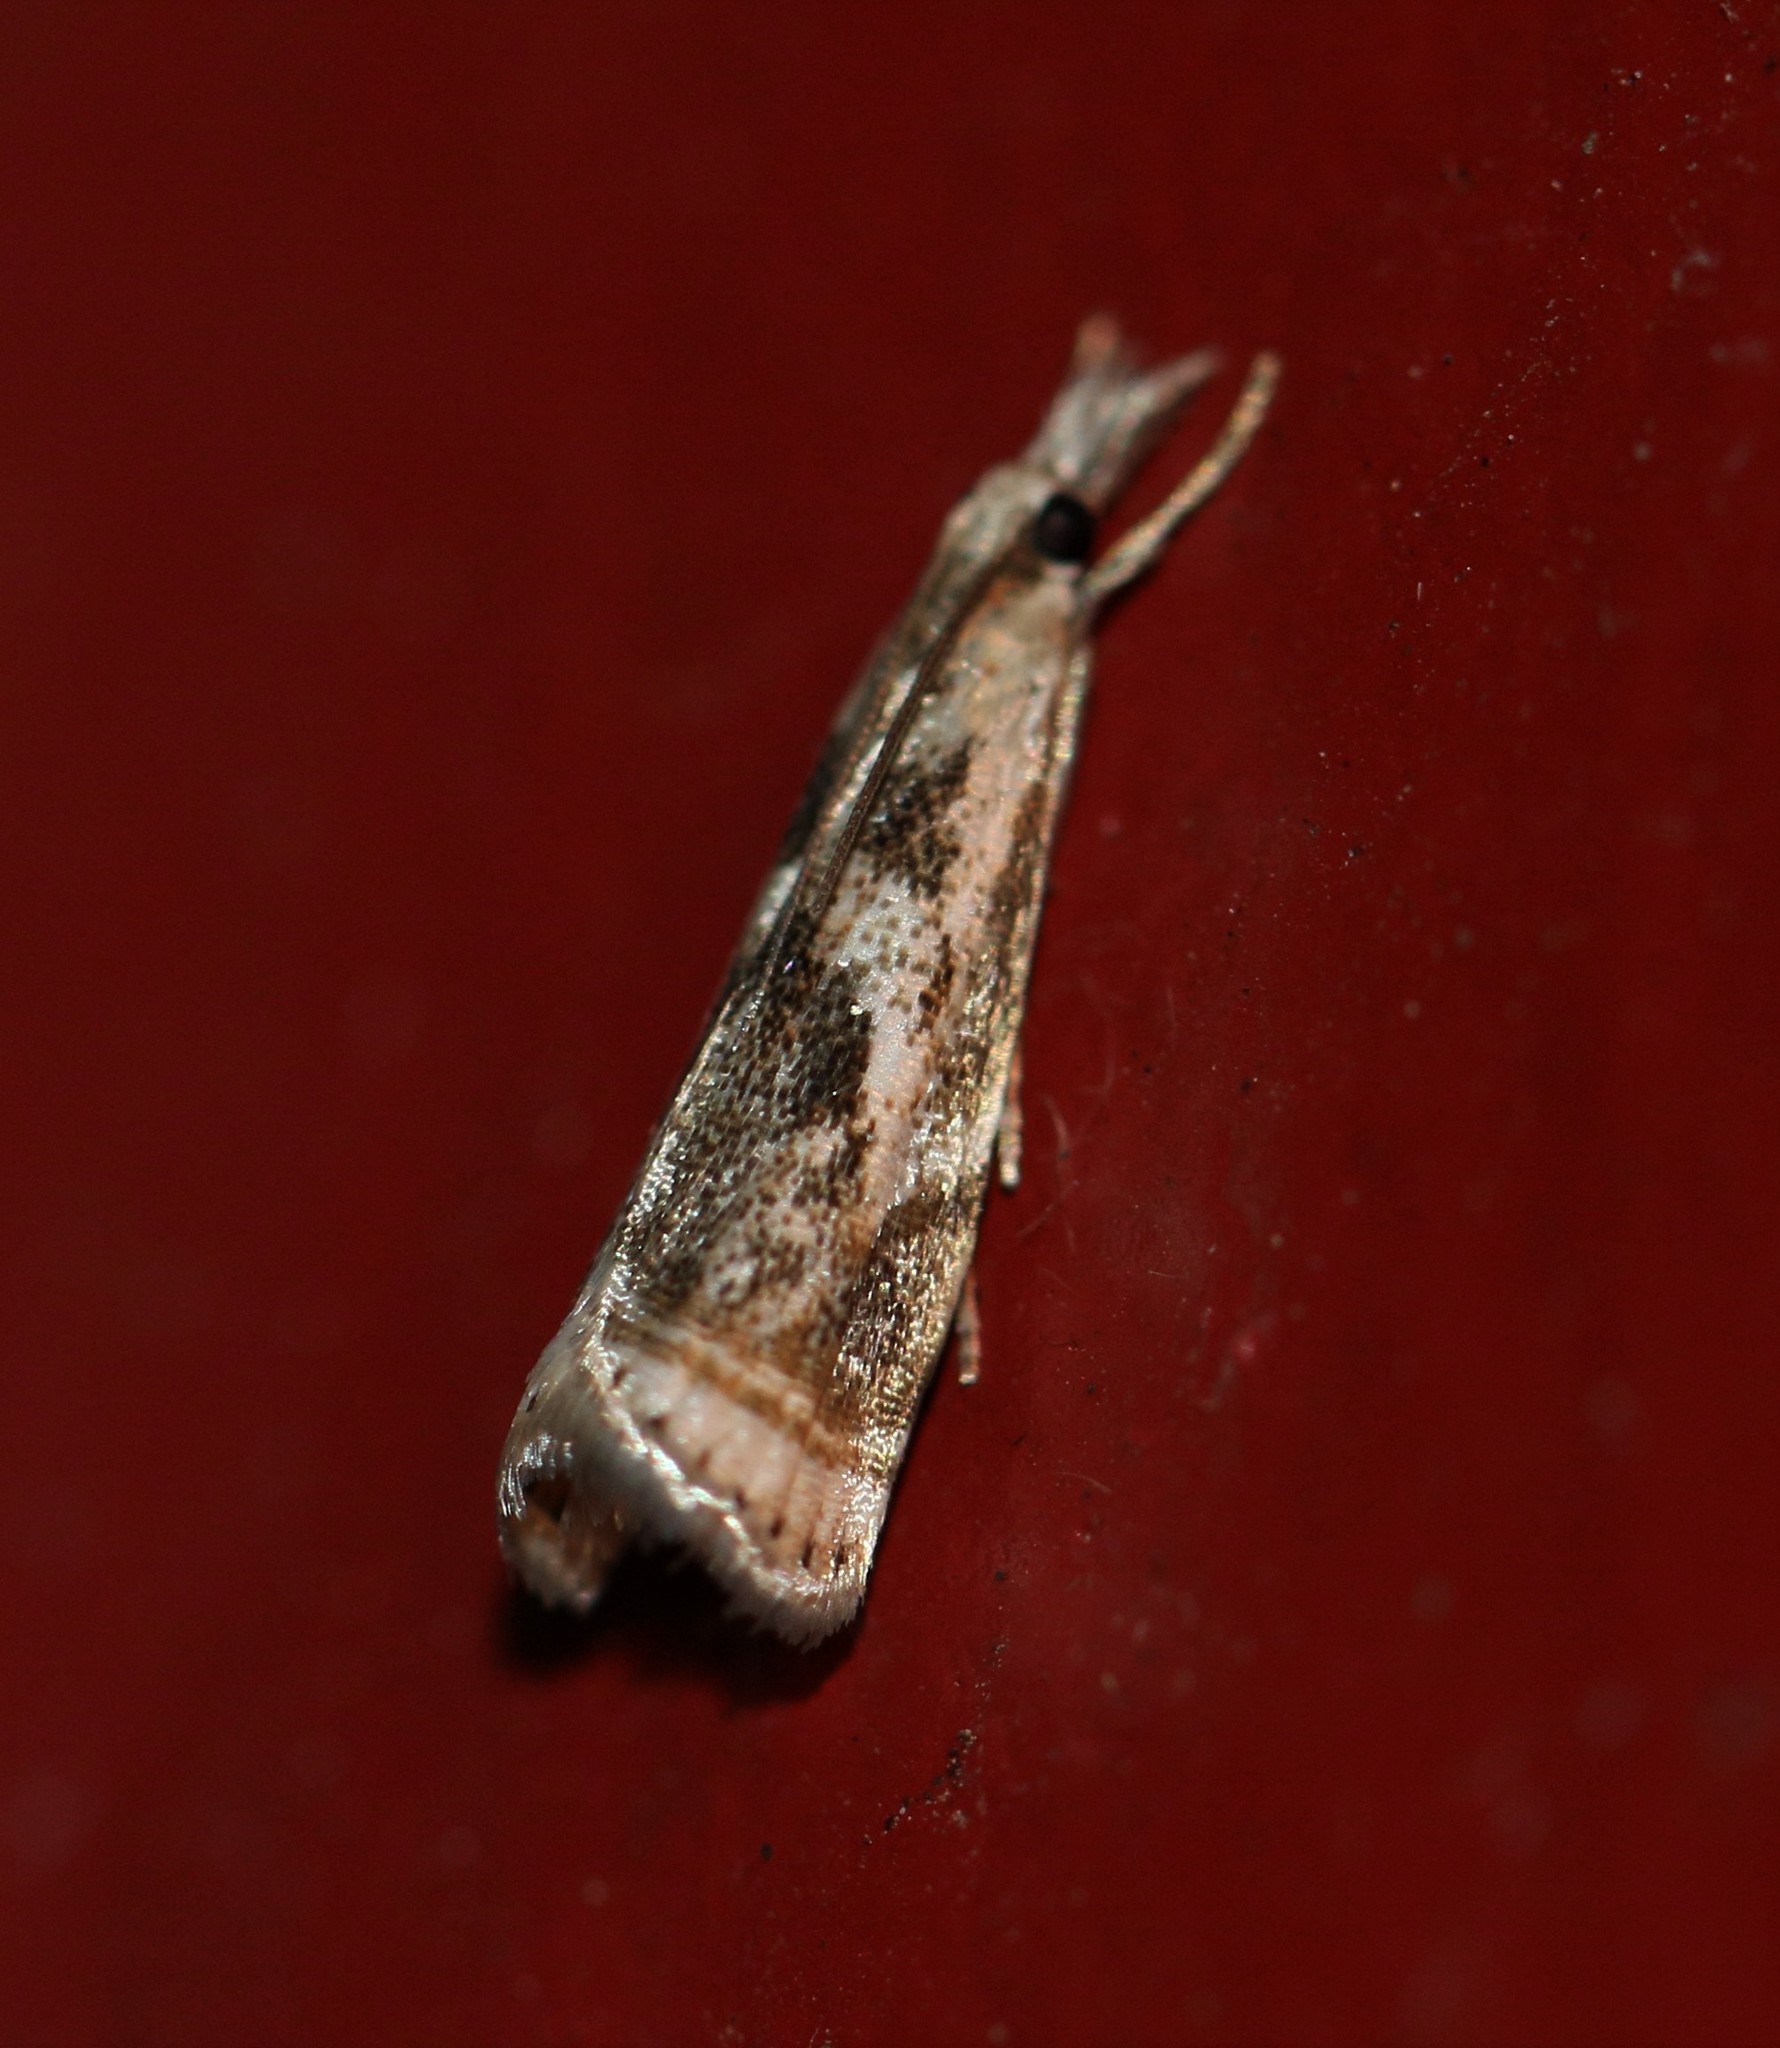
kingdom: Animalia
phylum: Arthropoda
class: Insecta
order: Lepidoptera
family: Crambidae
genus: Microcrambus
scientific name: Microcrambus elegans
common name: Elegant grass-veneer
